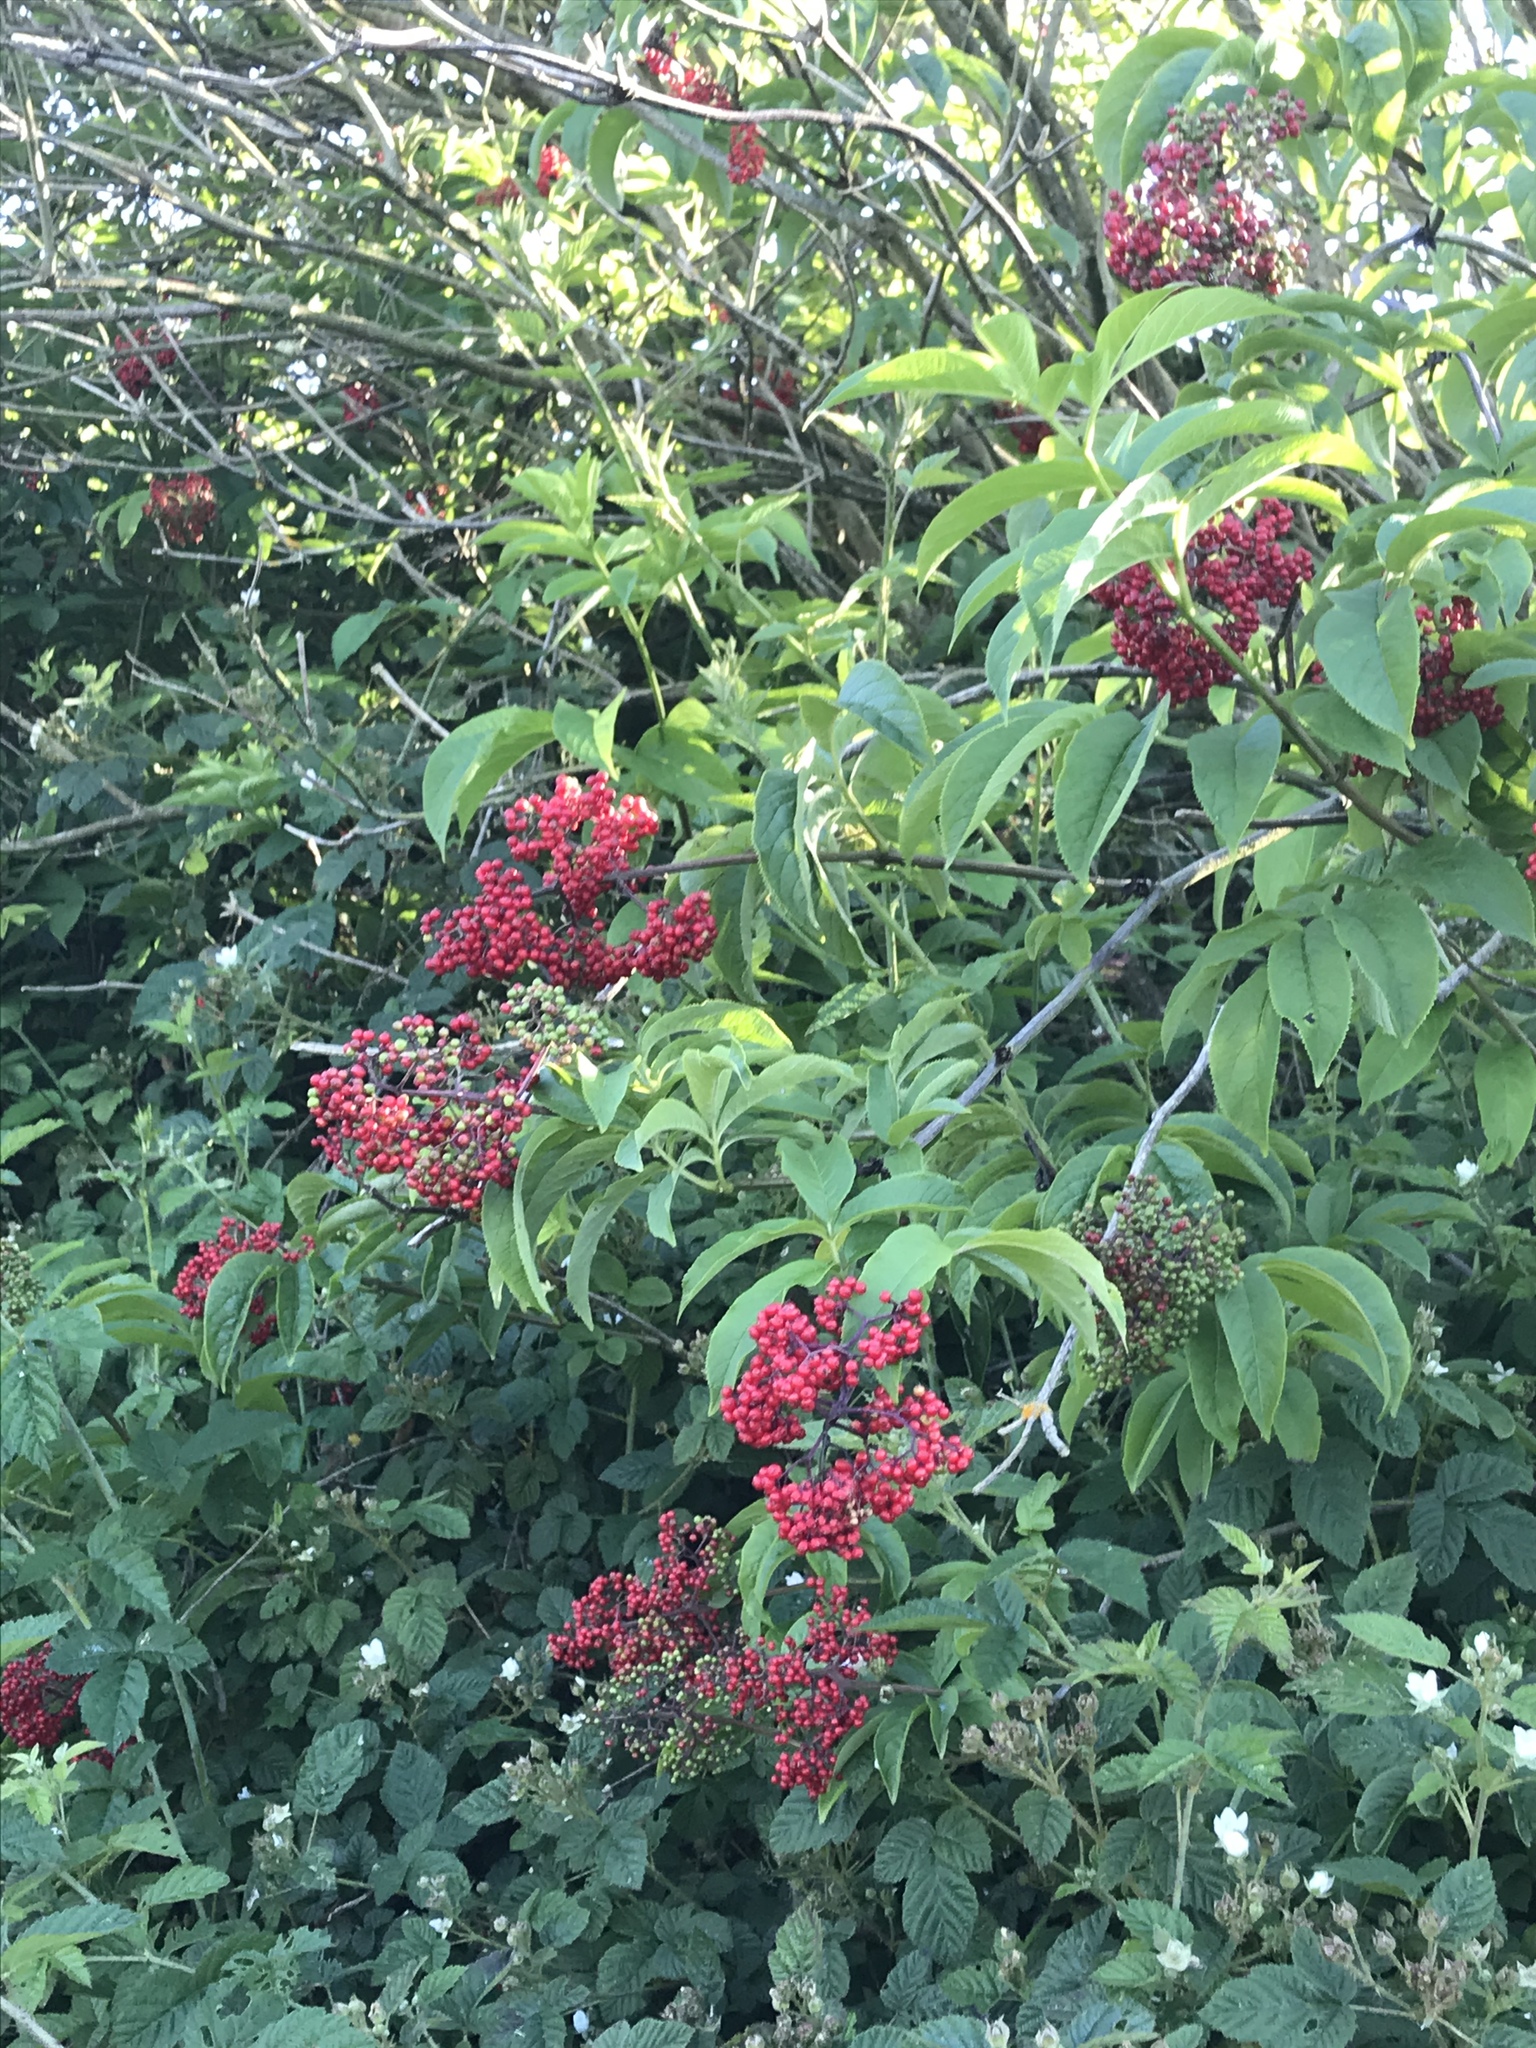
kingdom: Plantae
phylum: Tracheophyta
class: Magnoliopsida
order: Dipsacales
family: Viburnaceae
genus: Sambucus
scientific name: Sambucus racemosa
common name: Red-berried elder
